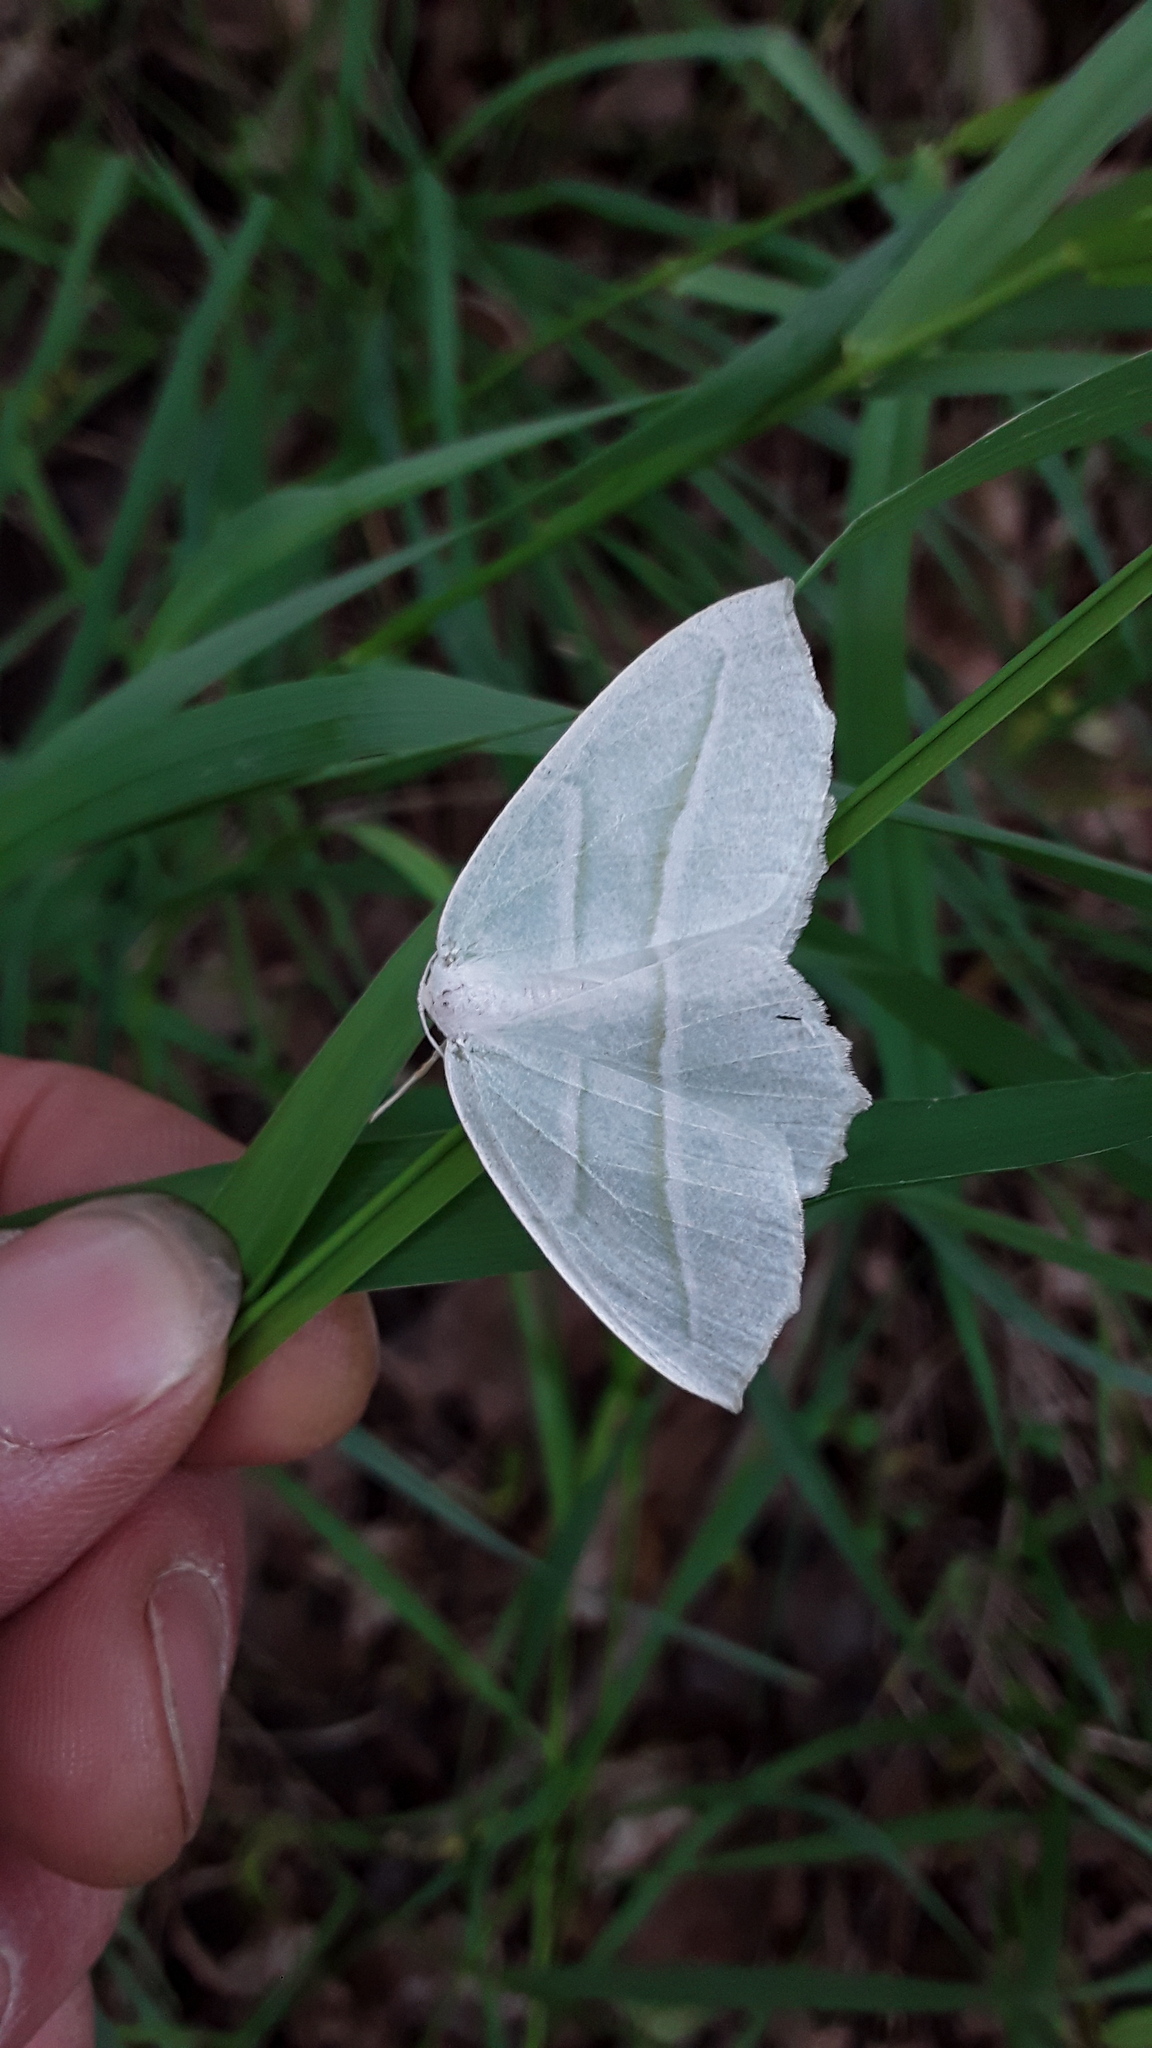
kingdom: Animalia
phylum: Arthropoda
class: Insecta
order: Lepidoptera
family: Geometridae
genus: Campaea
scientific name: Campaea perlata
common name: Fringed looper
